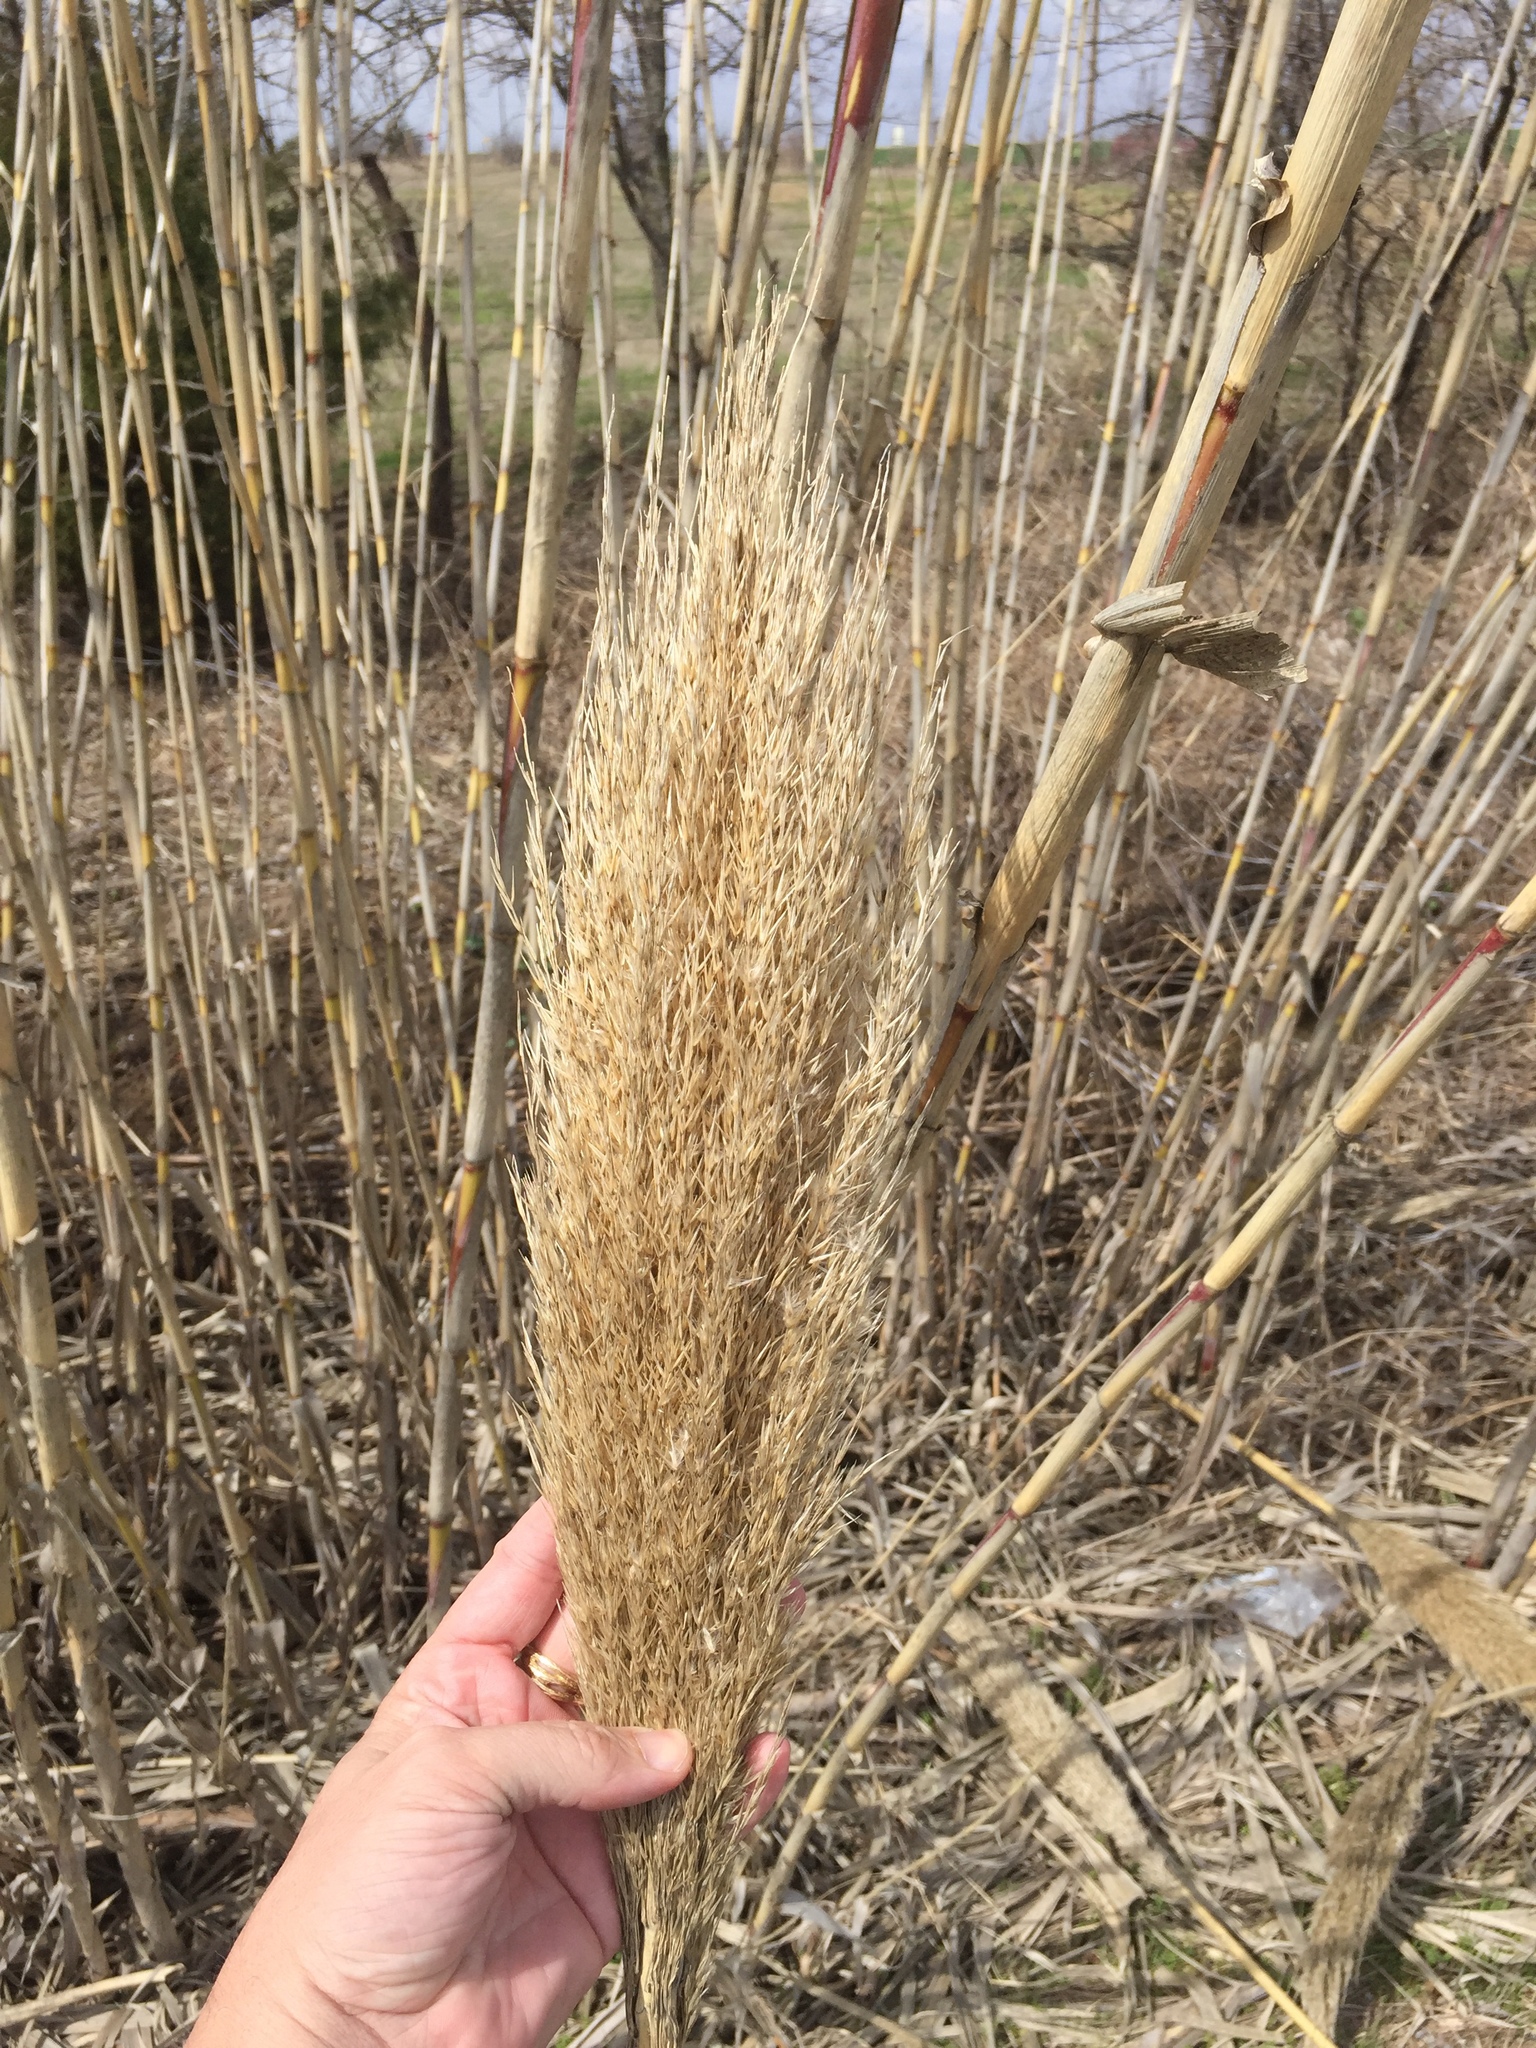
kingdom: Plantae
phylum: Tracheophyta
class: Liliopsida
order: Poales
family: Poaceae
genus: Arundo
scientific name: Arundo donax
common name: Giant reed
